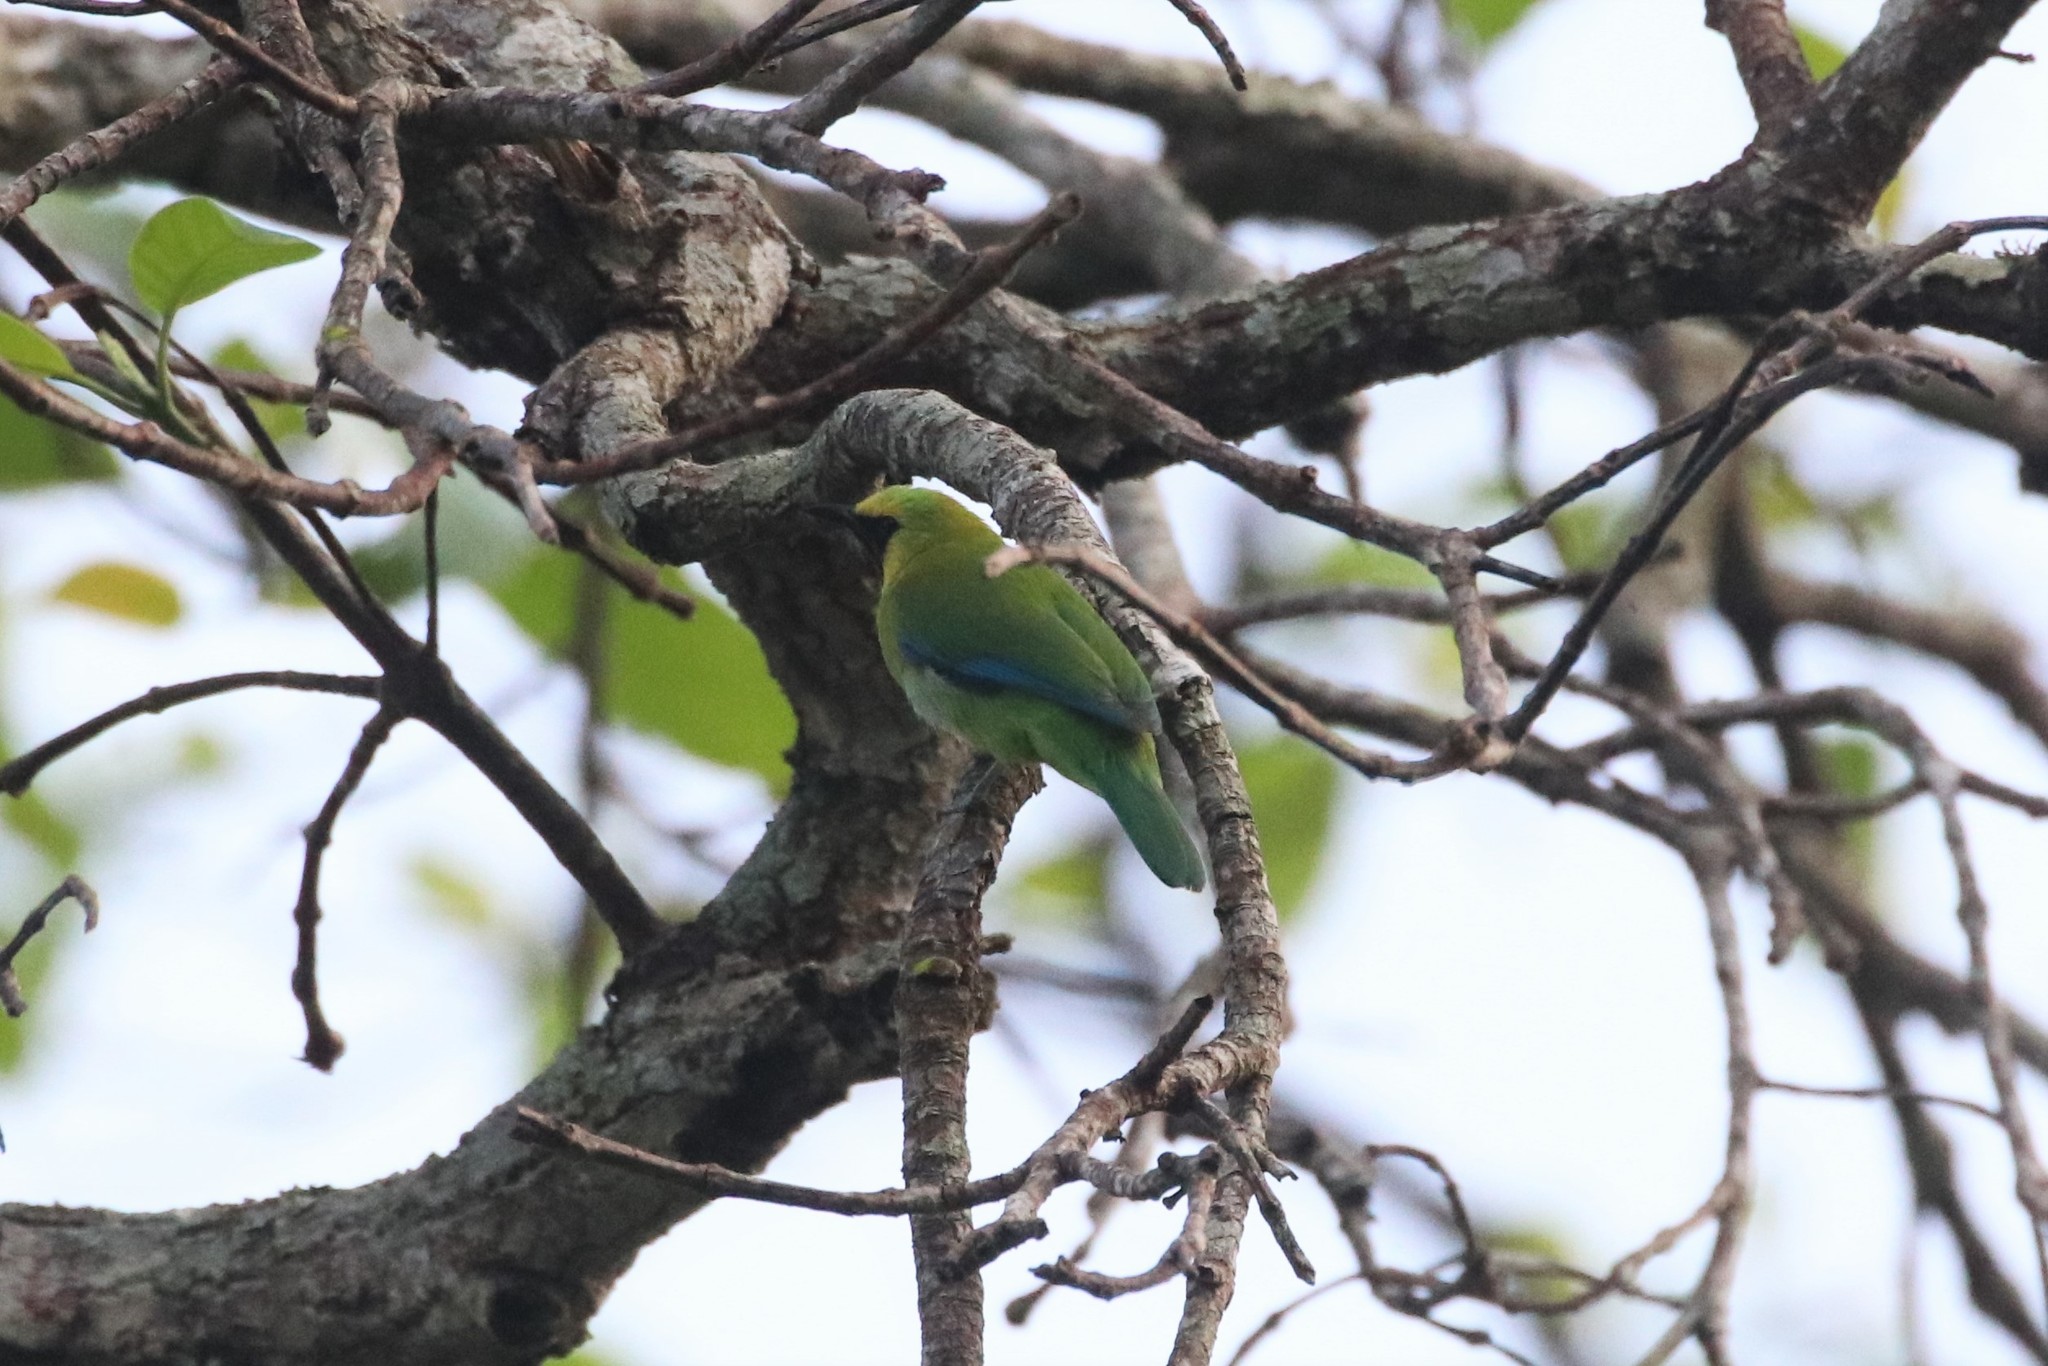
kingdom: Animalia
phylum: Chordata
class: Aves
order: Passeriformes
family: Chloropseidae
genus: Chloropsis
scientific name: Chloropsis moluccensis
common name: Blue-winged leafbird
